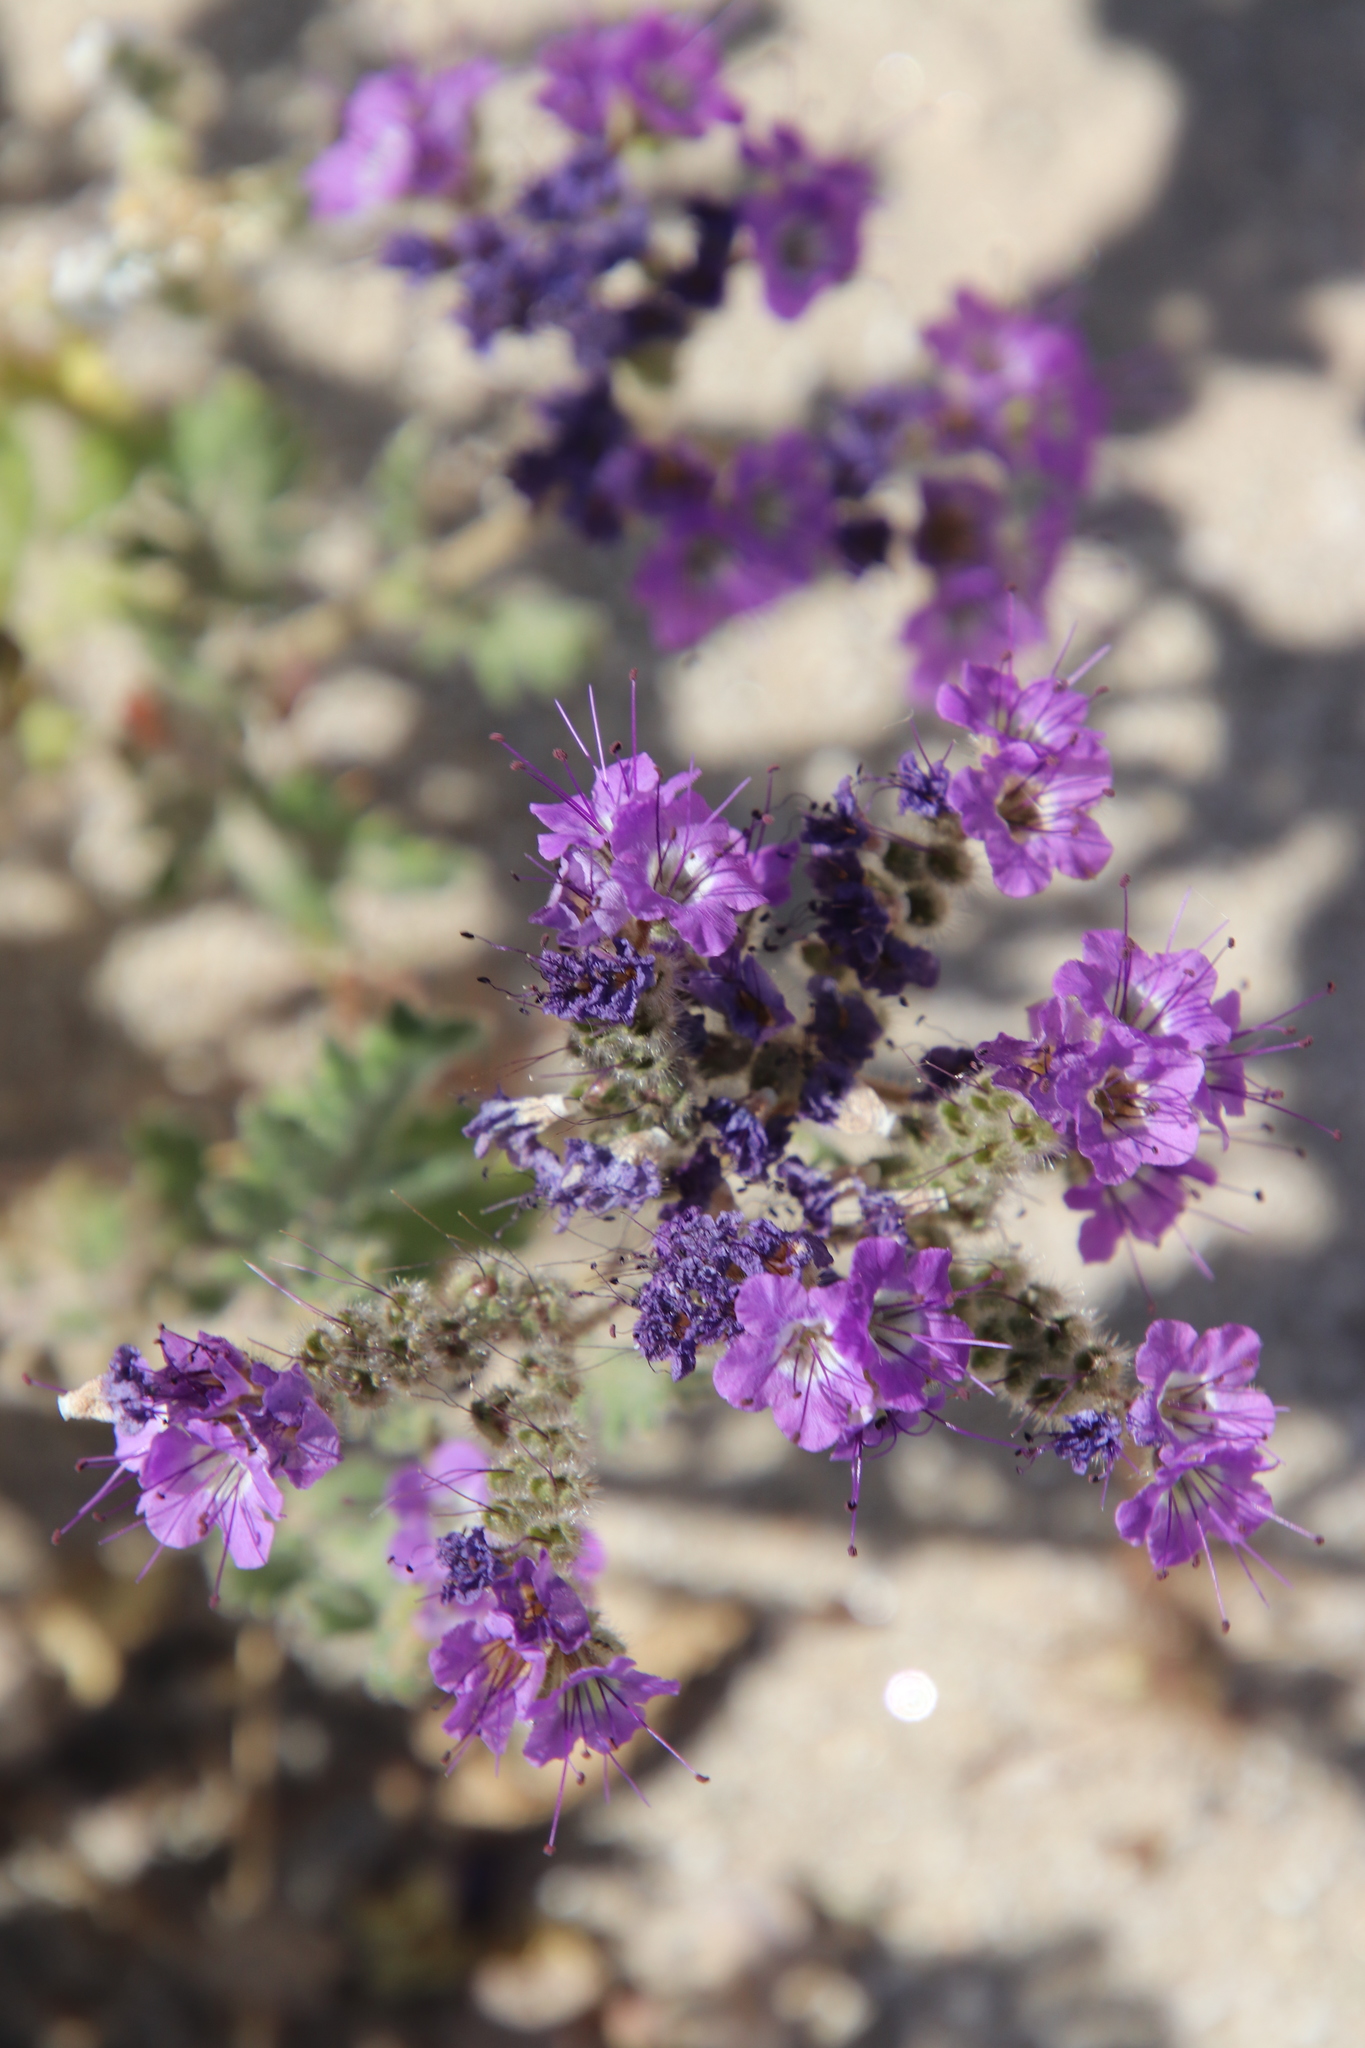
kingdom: Plantae
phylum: Tracheophyta
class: Magnoliopsida
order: Boraginales
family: Hydrophyllaceae
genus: Phacelia
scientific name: Phacelia crenulata
